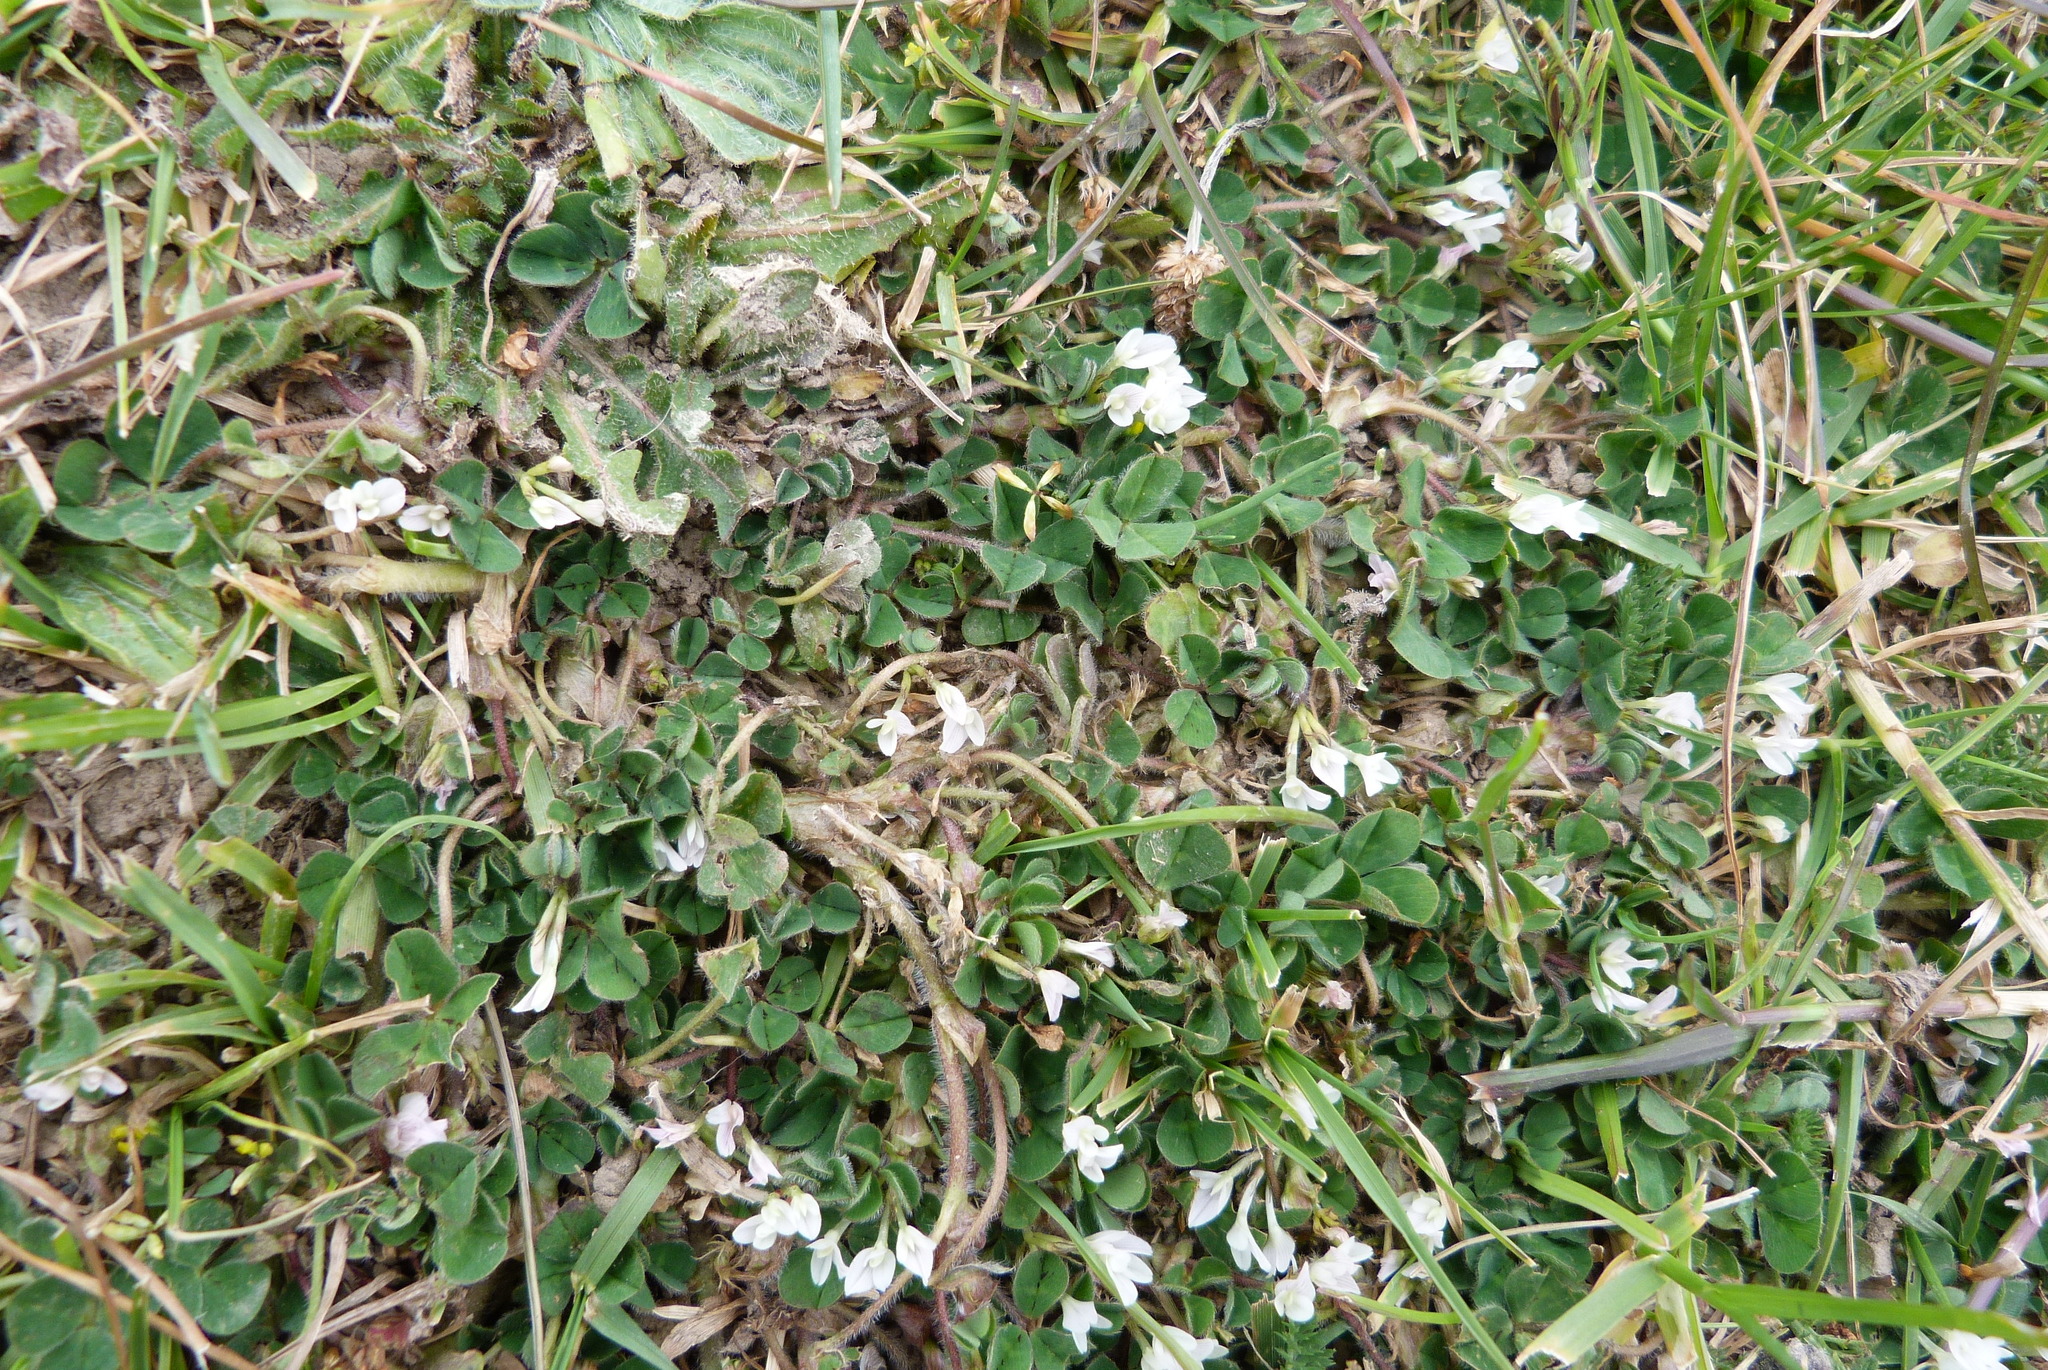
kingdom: Plantae
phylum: Tracheophyta
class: Magnoliopsida
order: Fabales
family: Fabaceae
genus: Trifolium
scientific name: Trifolium subterraneum
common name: Subterranean clover
